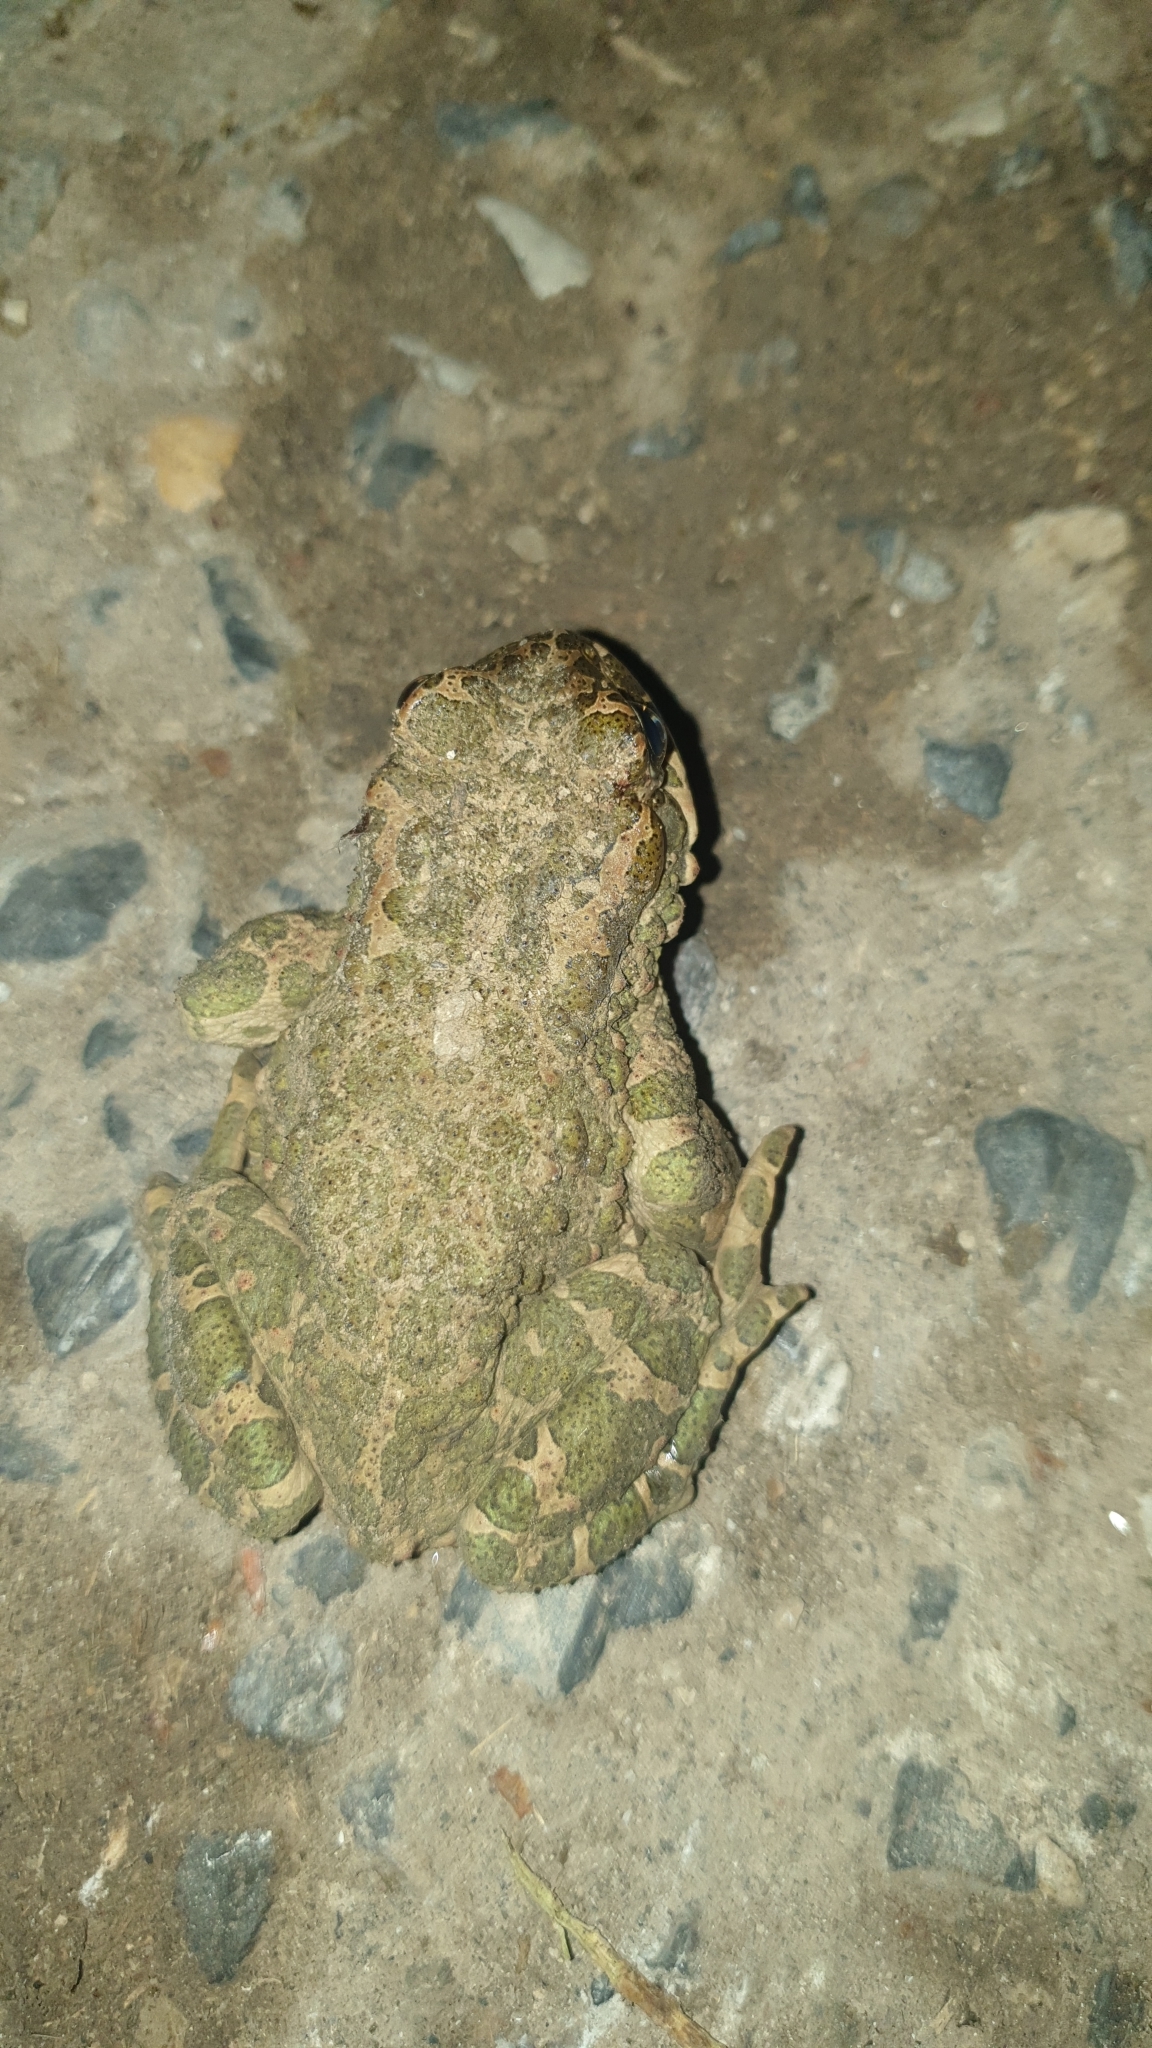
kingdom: Animalia
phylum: Chordata
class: Amphibia
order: Anura
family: Bufonidae
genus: Bufotes
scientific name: Bufotes viridis
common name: European green toad
